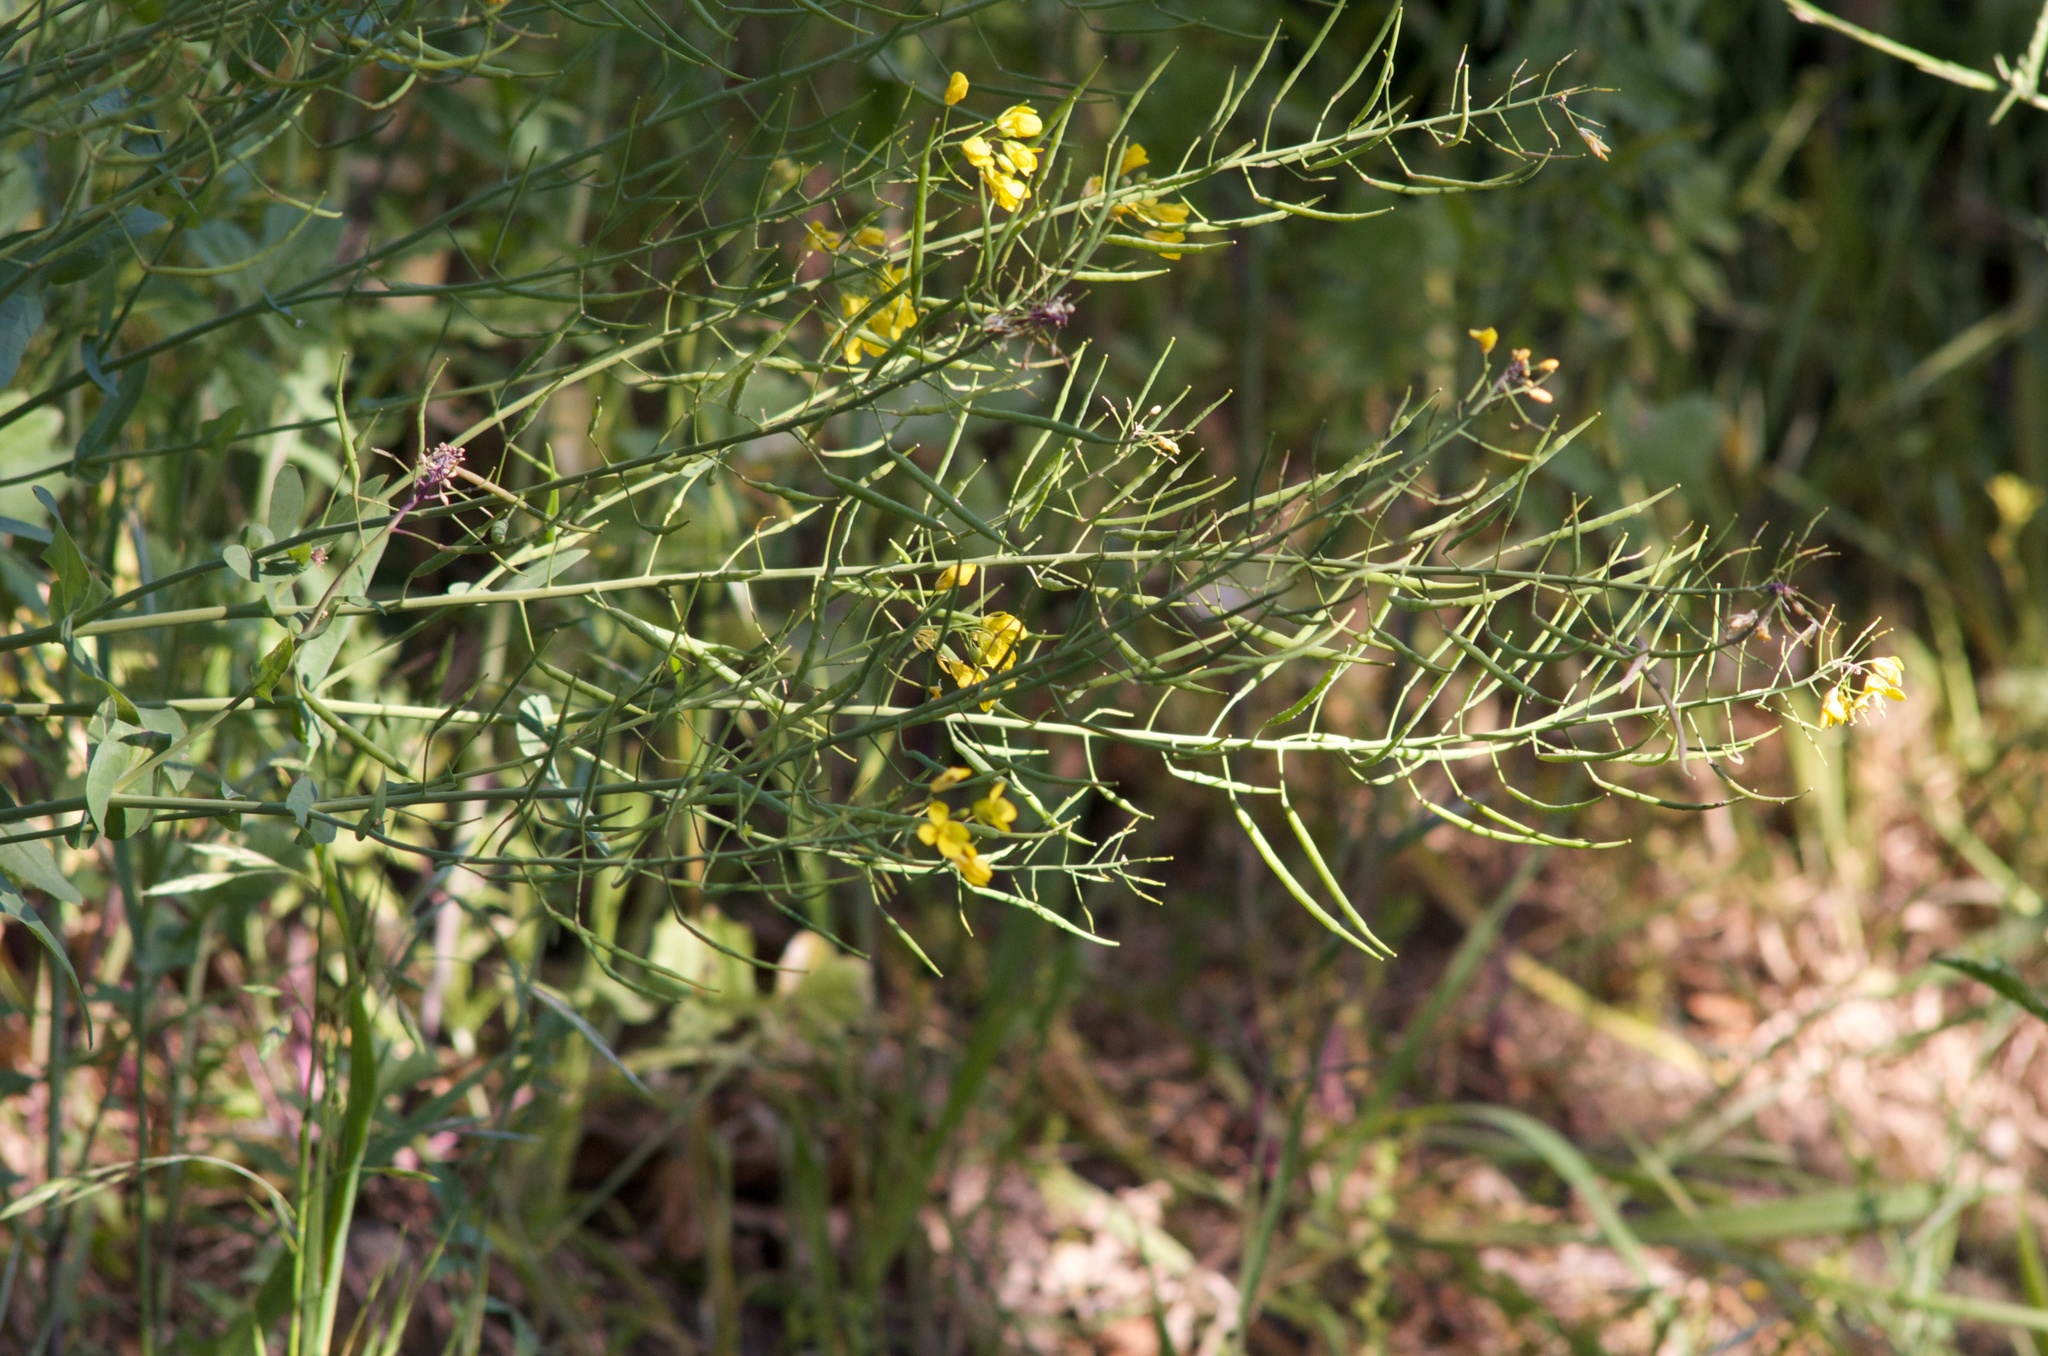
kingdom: Plantae
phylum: Tracheophyta
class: Magnoliopsida
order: Brassicales
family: Brassicaceae
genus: Brassica
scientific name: Brassica rapa
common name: Field mustard
